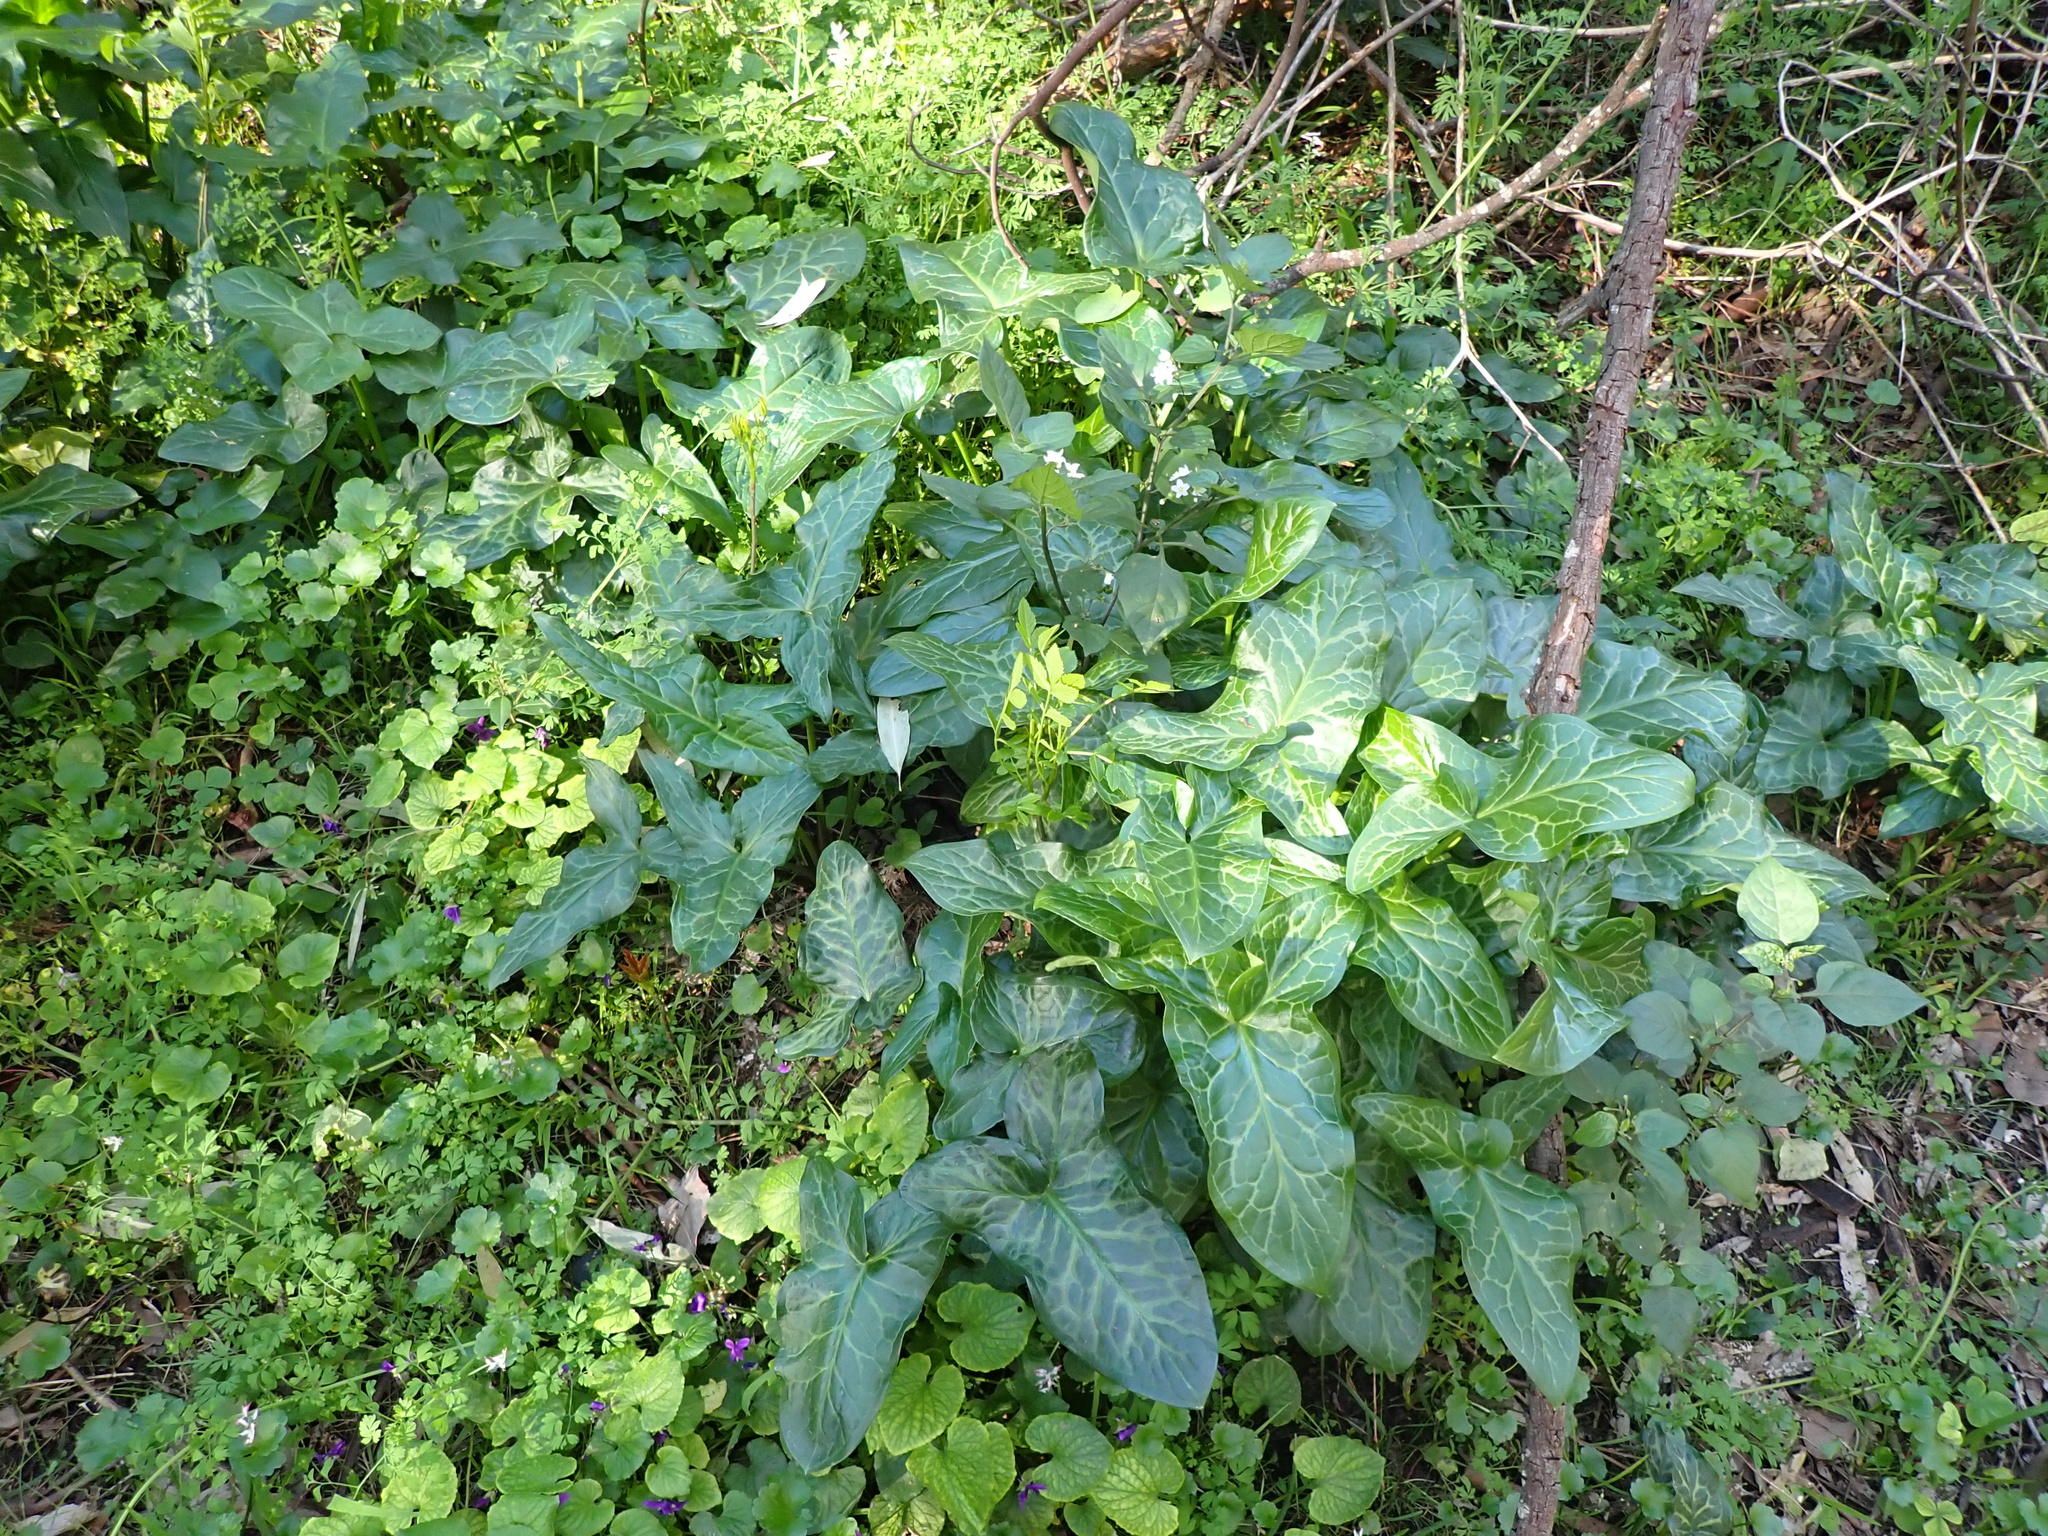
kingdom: Plantae
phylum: Tracheophyta
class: Liliopsida
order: Alismatales
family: Araceae
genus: Arum
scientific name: Arum italicum
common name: Italian lords-and-ladies
